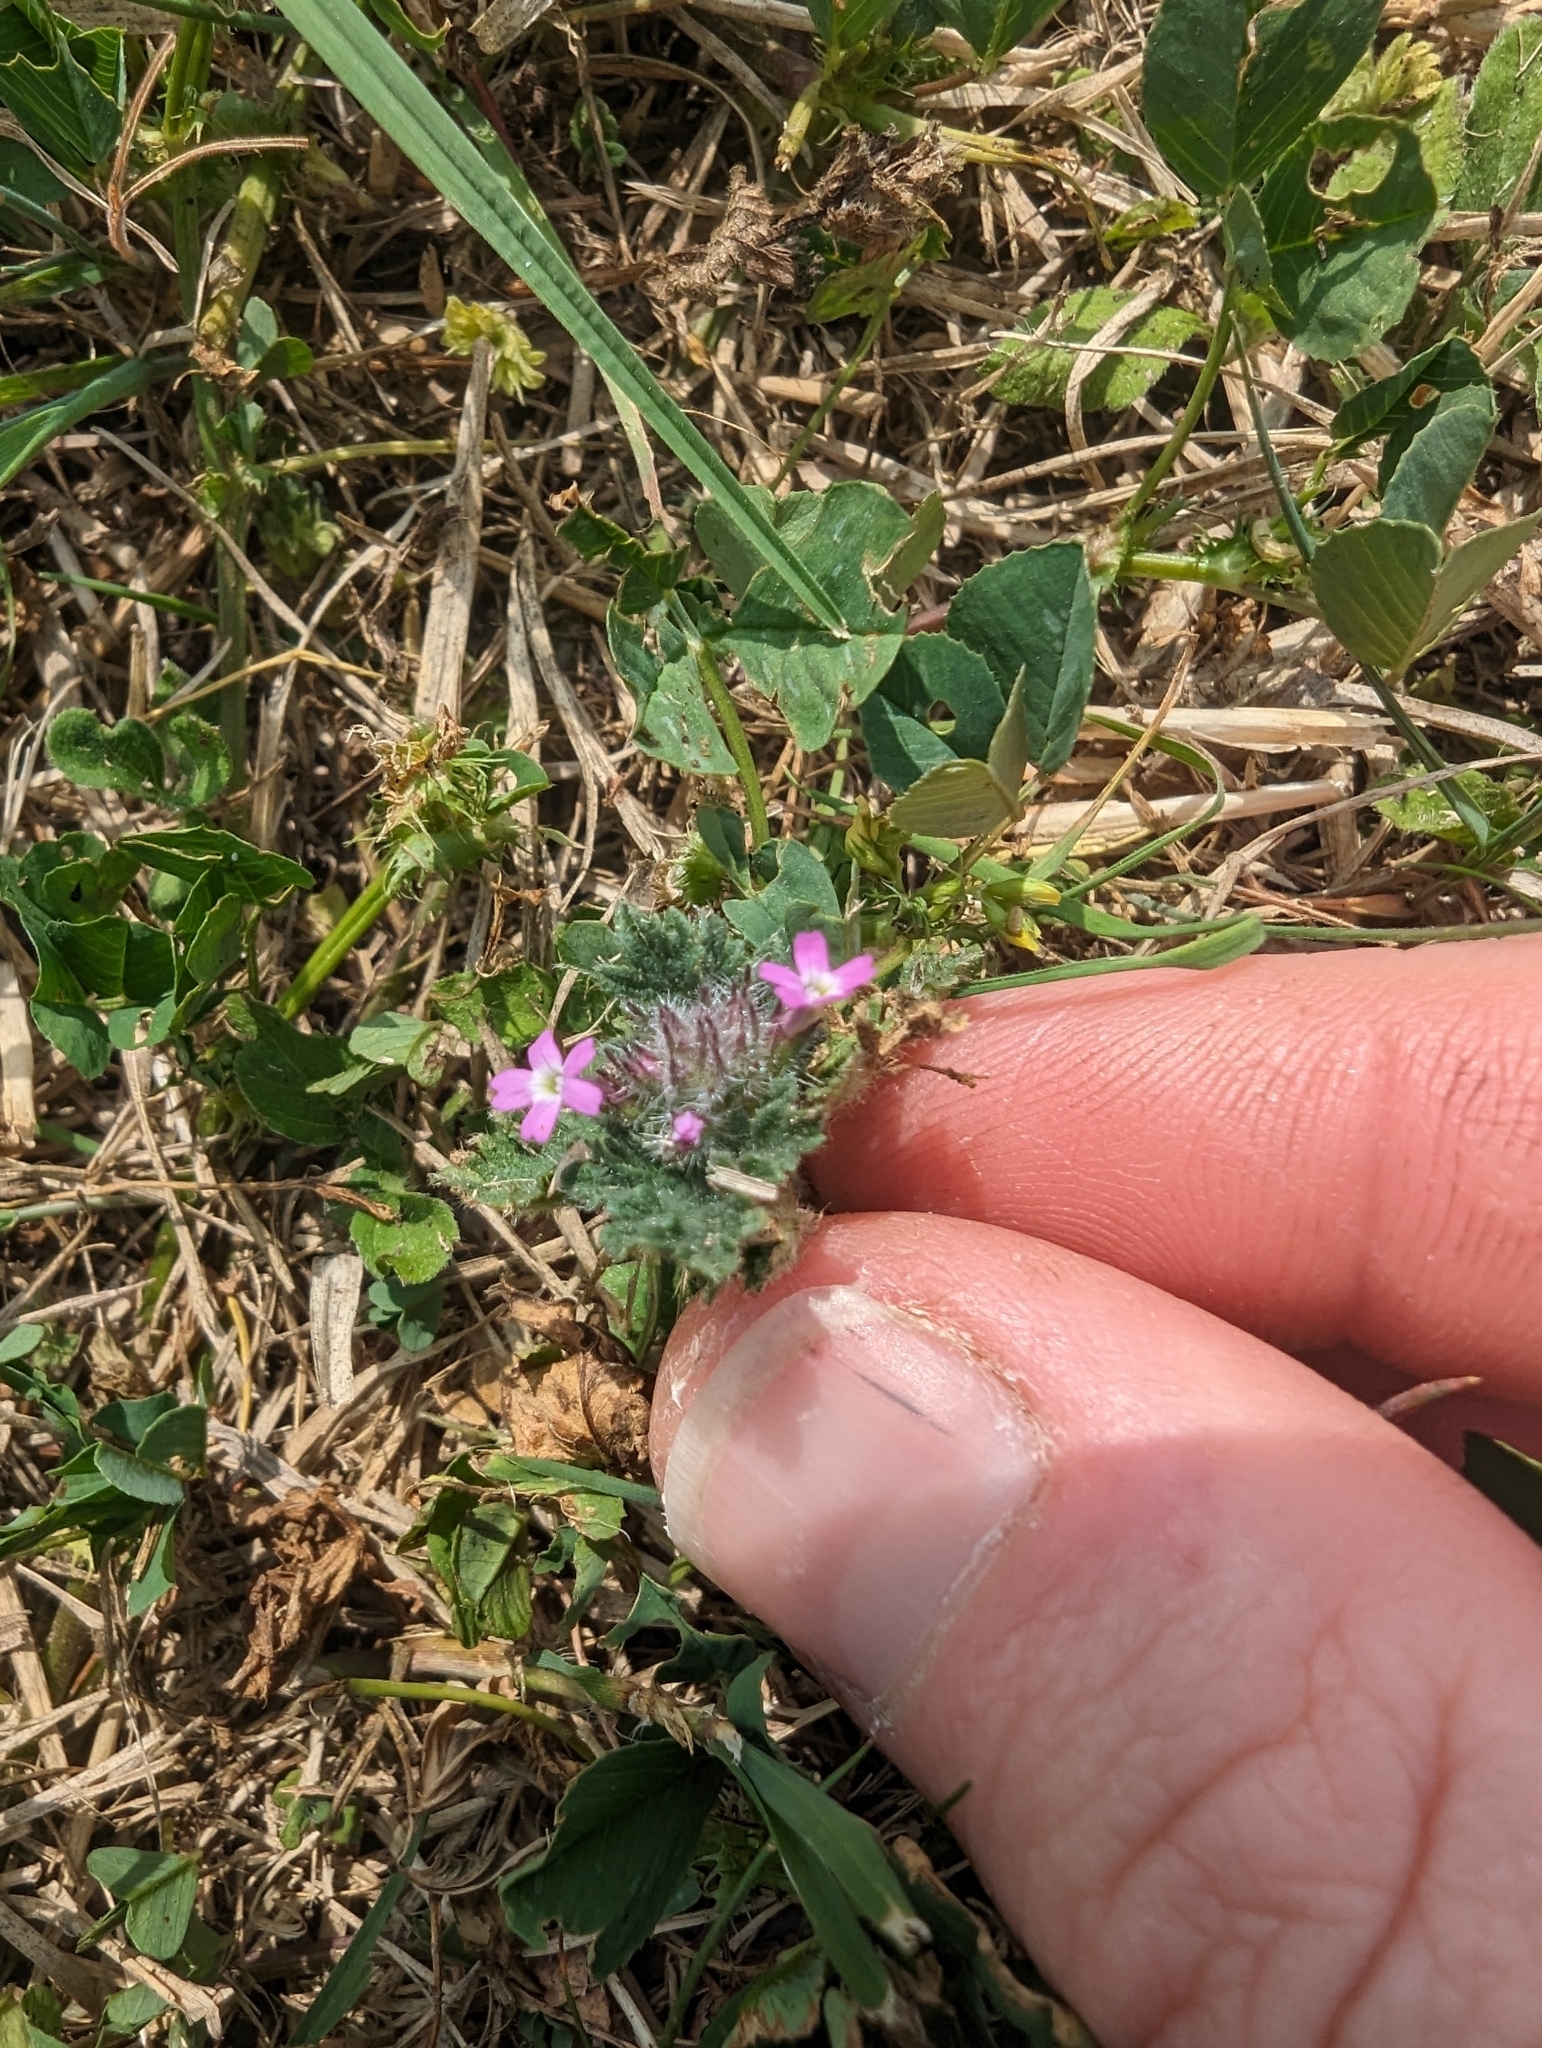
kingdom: Plantae
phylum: Tracheophyta
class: Magnoliopsida
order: Lamiales
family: Verbenaceae
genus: Verbena
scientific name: Verbena pumila
